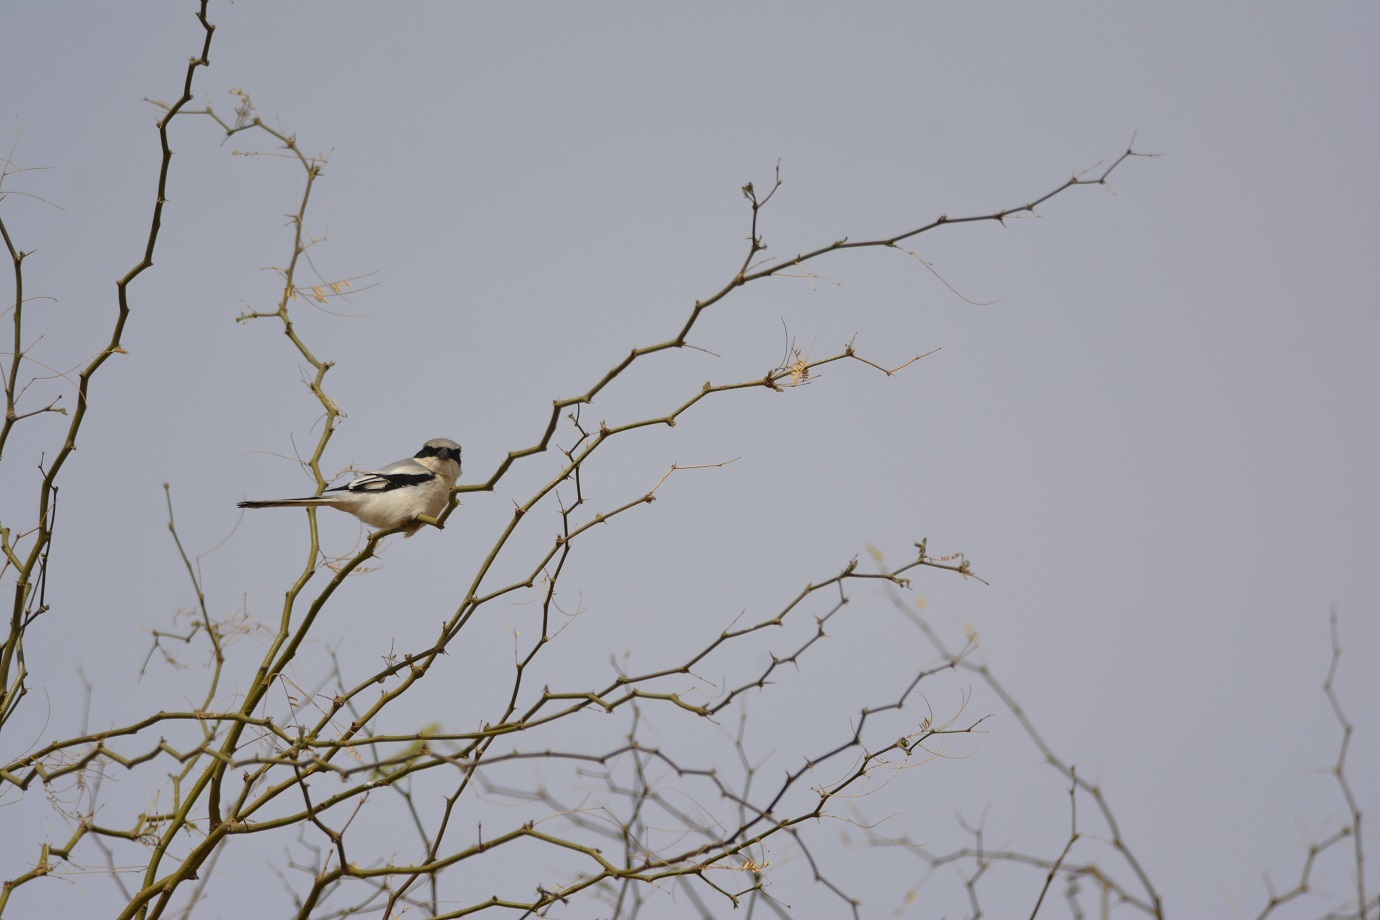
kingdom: Animalia
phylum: Chordata
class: Aves
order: Passeriformes
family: Laniidae
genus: Lanius
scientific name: Lanius excubitor
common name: Great grey shrike
